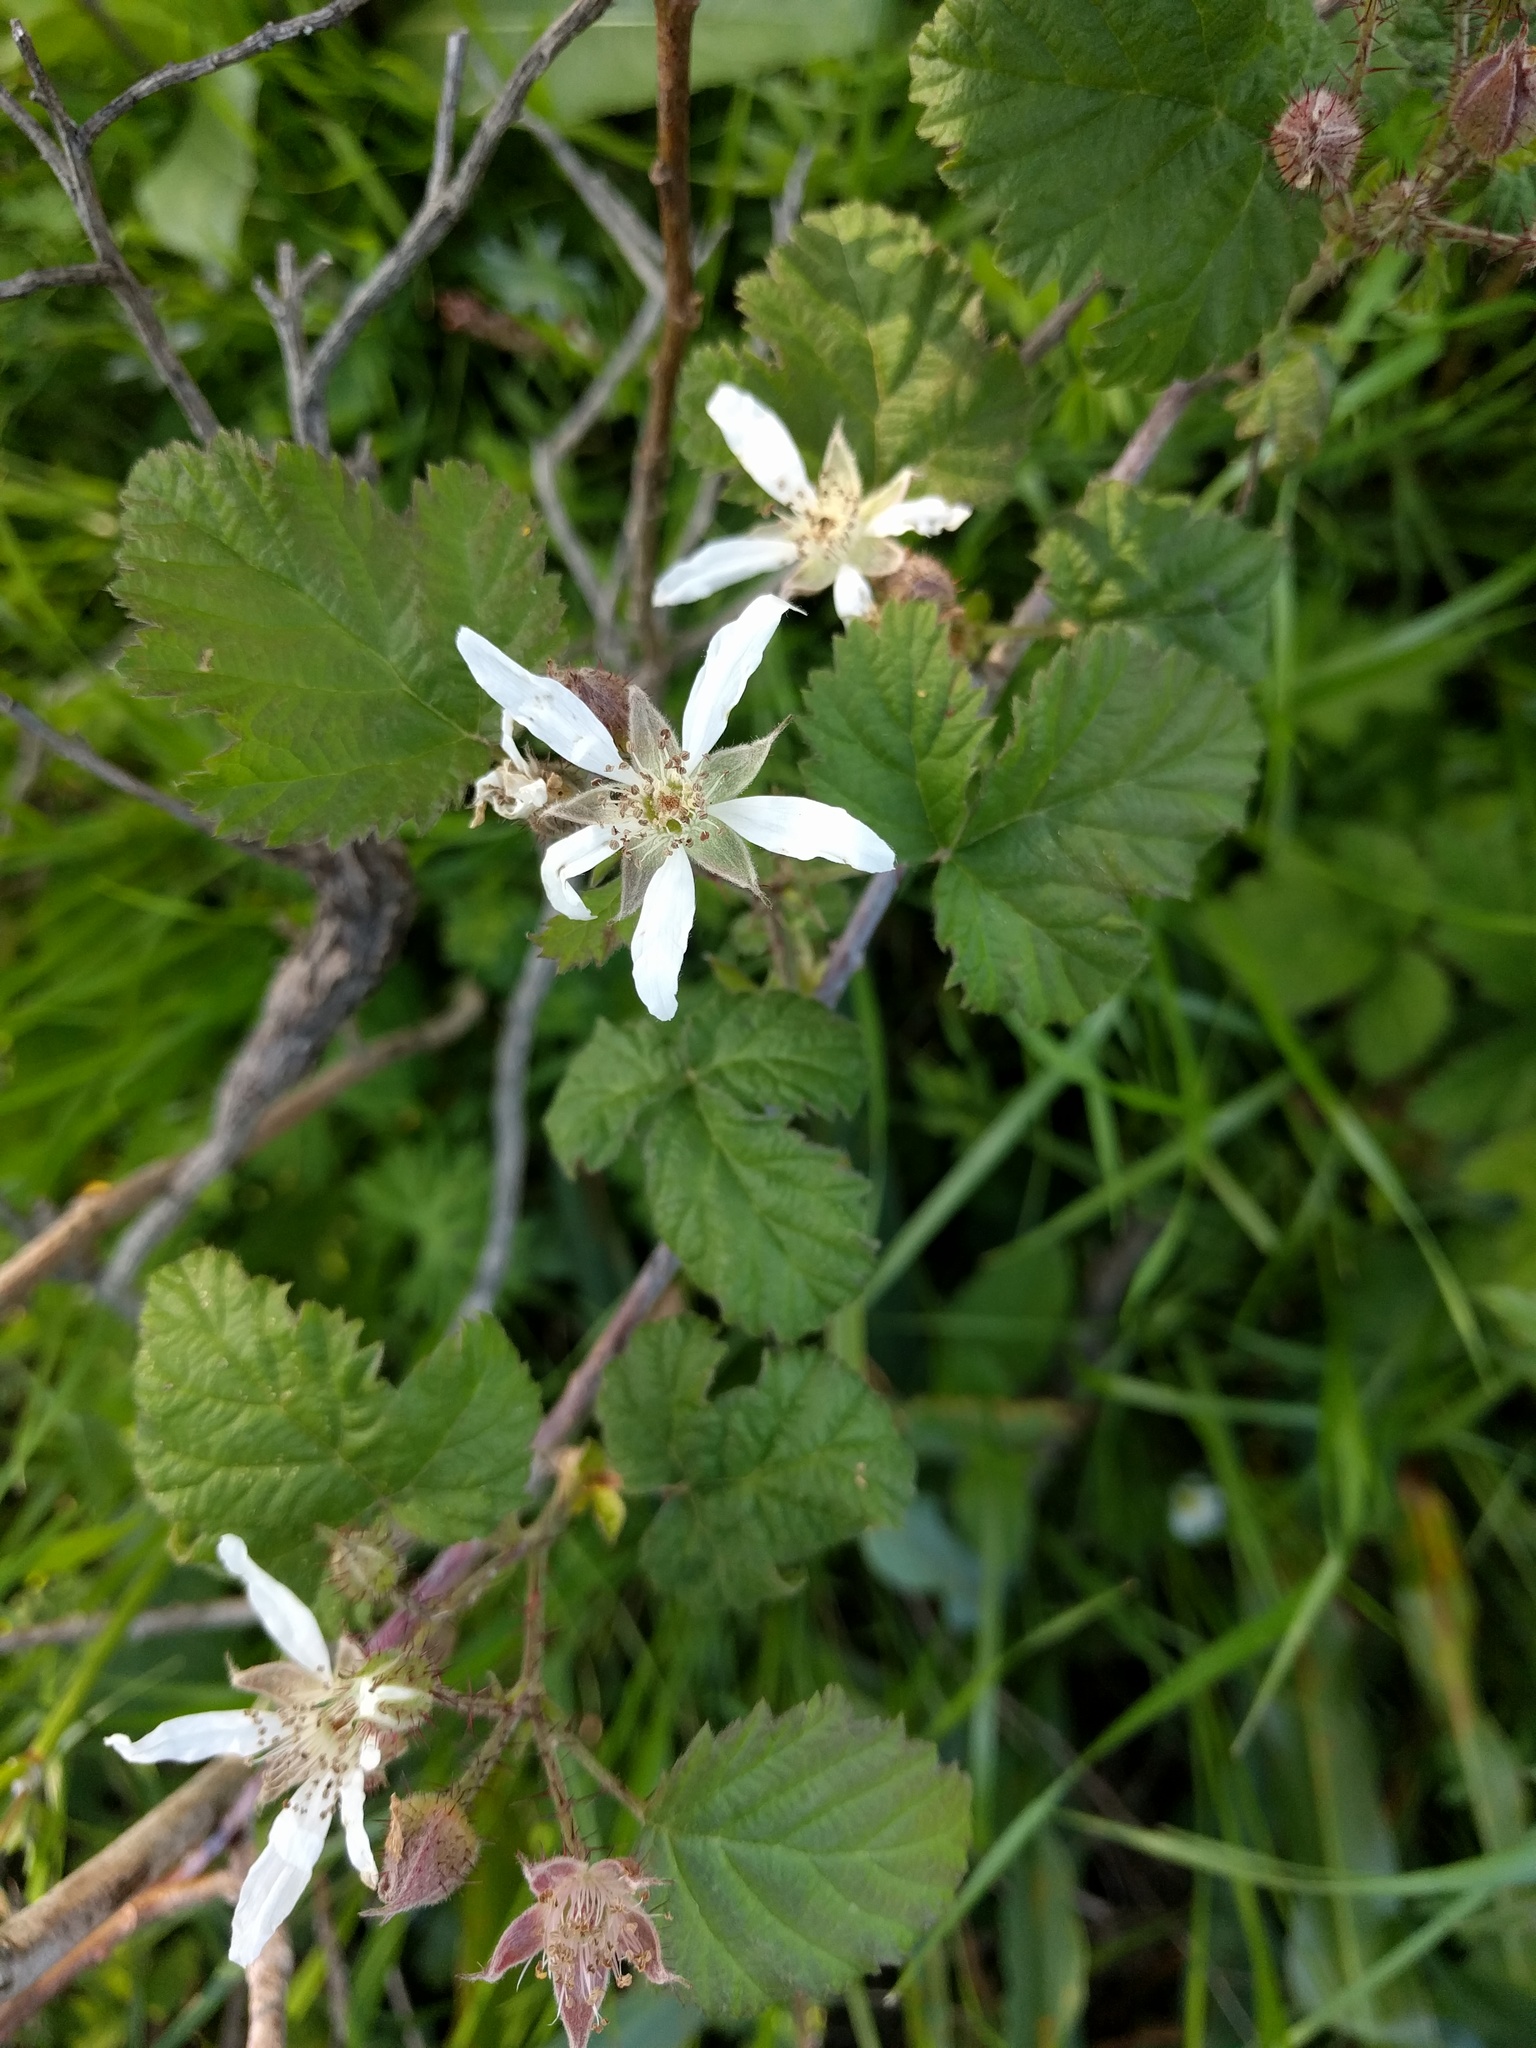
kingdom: Plantae
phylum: Tracheophyta
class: Magnoliopsida
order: Rosales
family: Rosaceae
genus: Rubus
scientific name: Rubus ursinus
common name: Pacific blackberry
